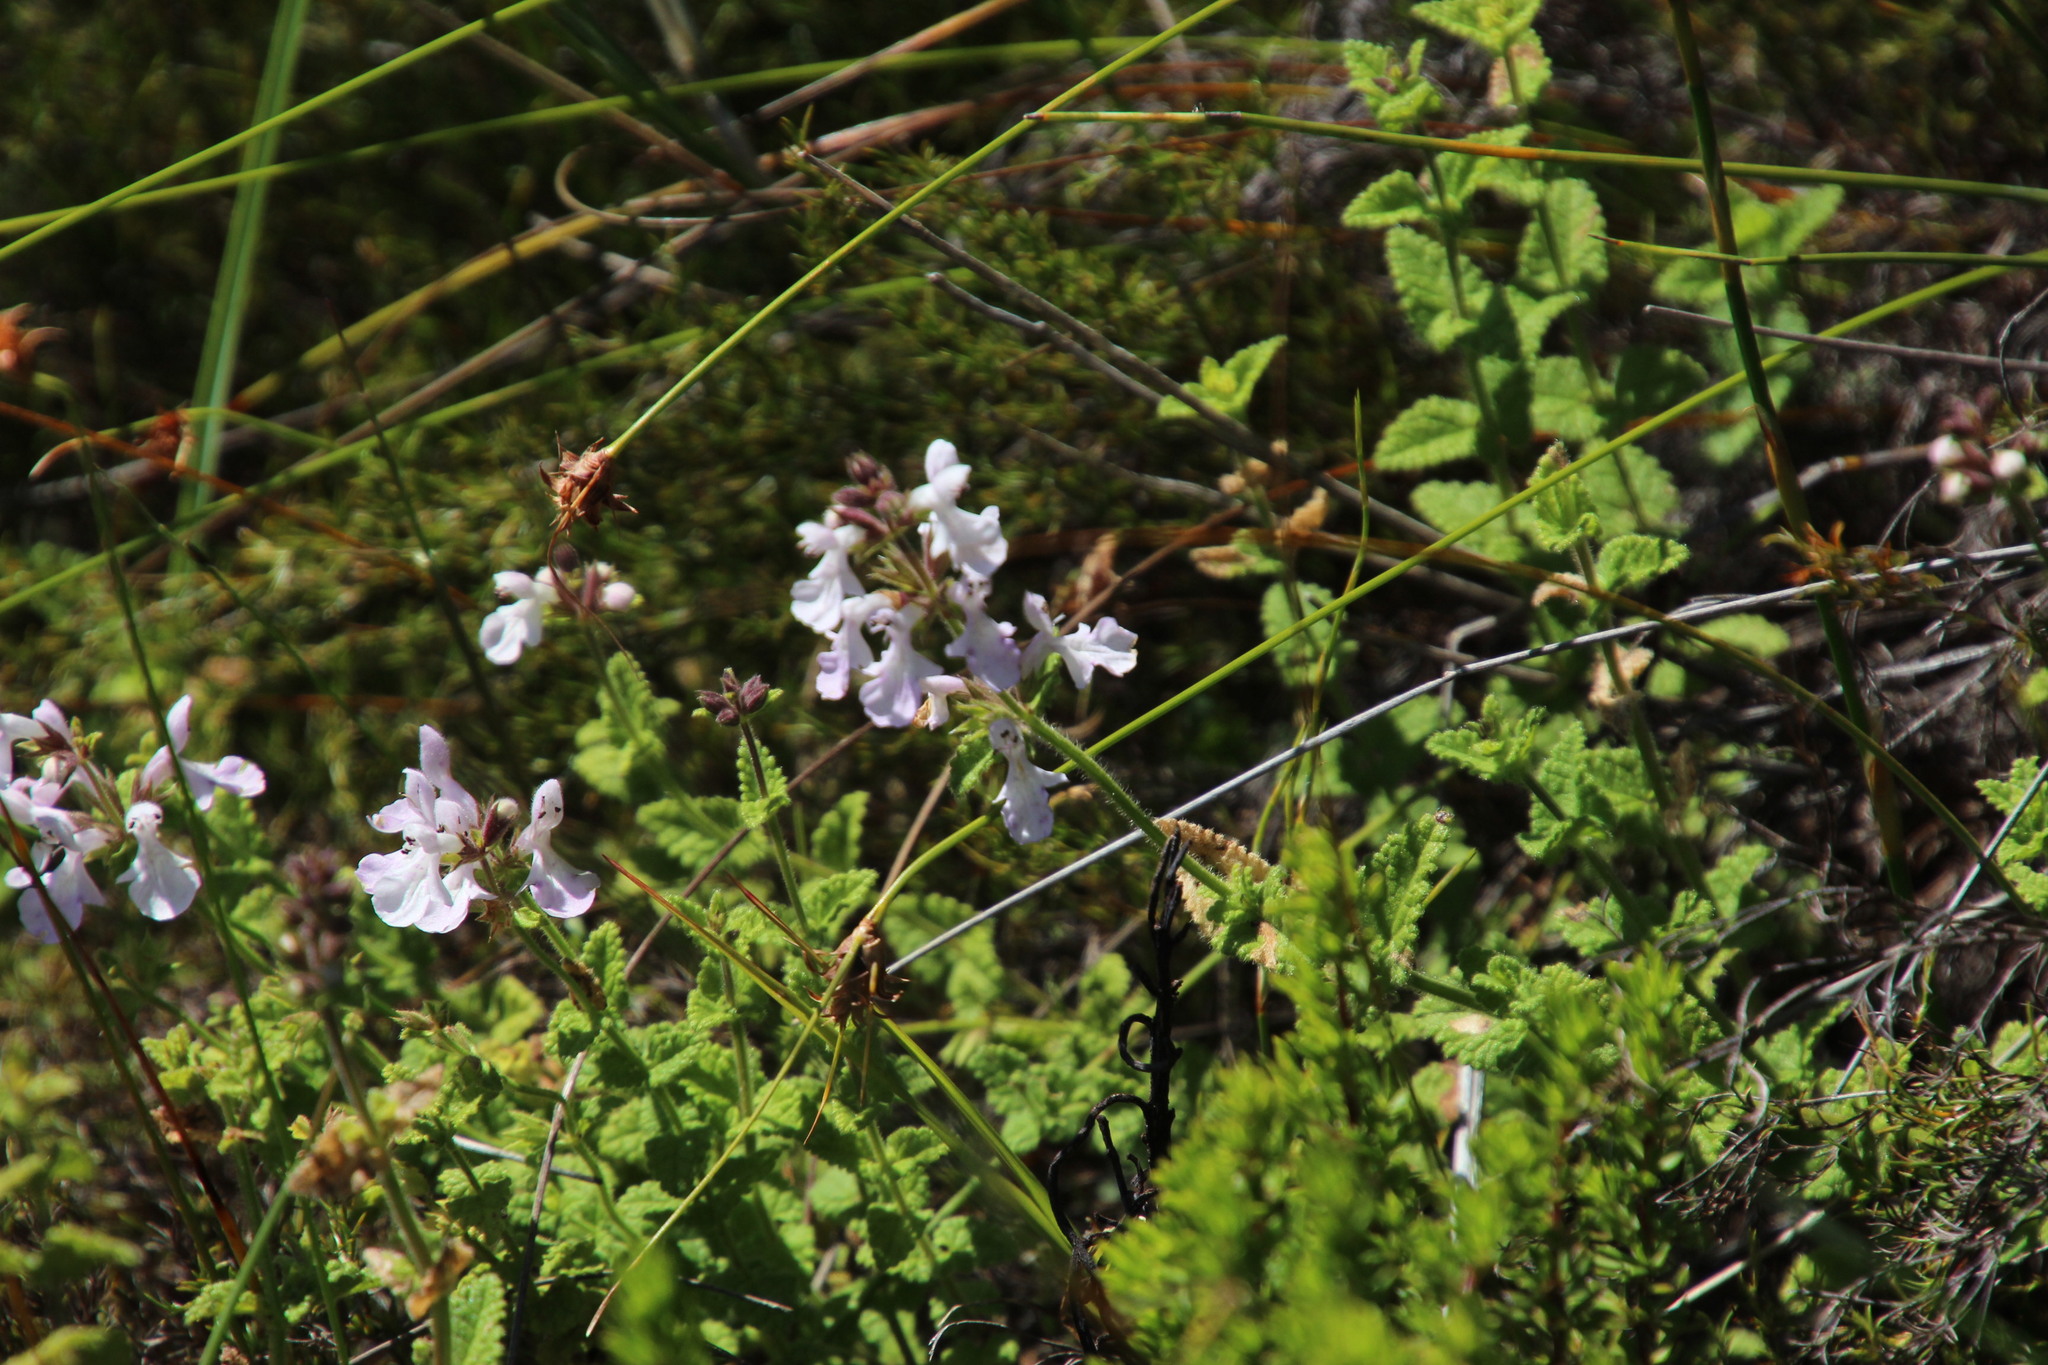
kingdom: Plantae
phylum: Tracheophyta
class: Magnoliopsida
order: Lamiales
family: Lamiaceae
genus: Stachys
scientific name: Stachys aethiopica
